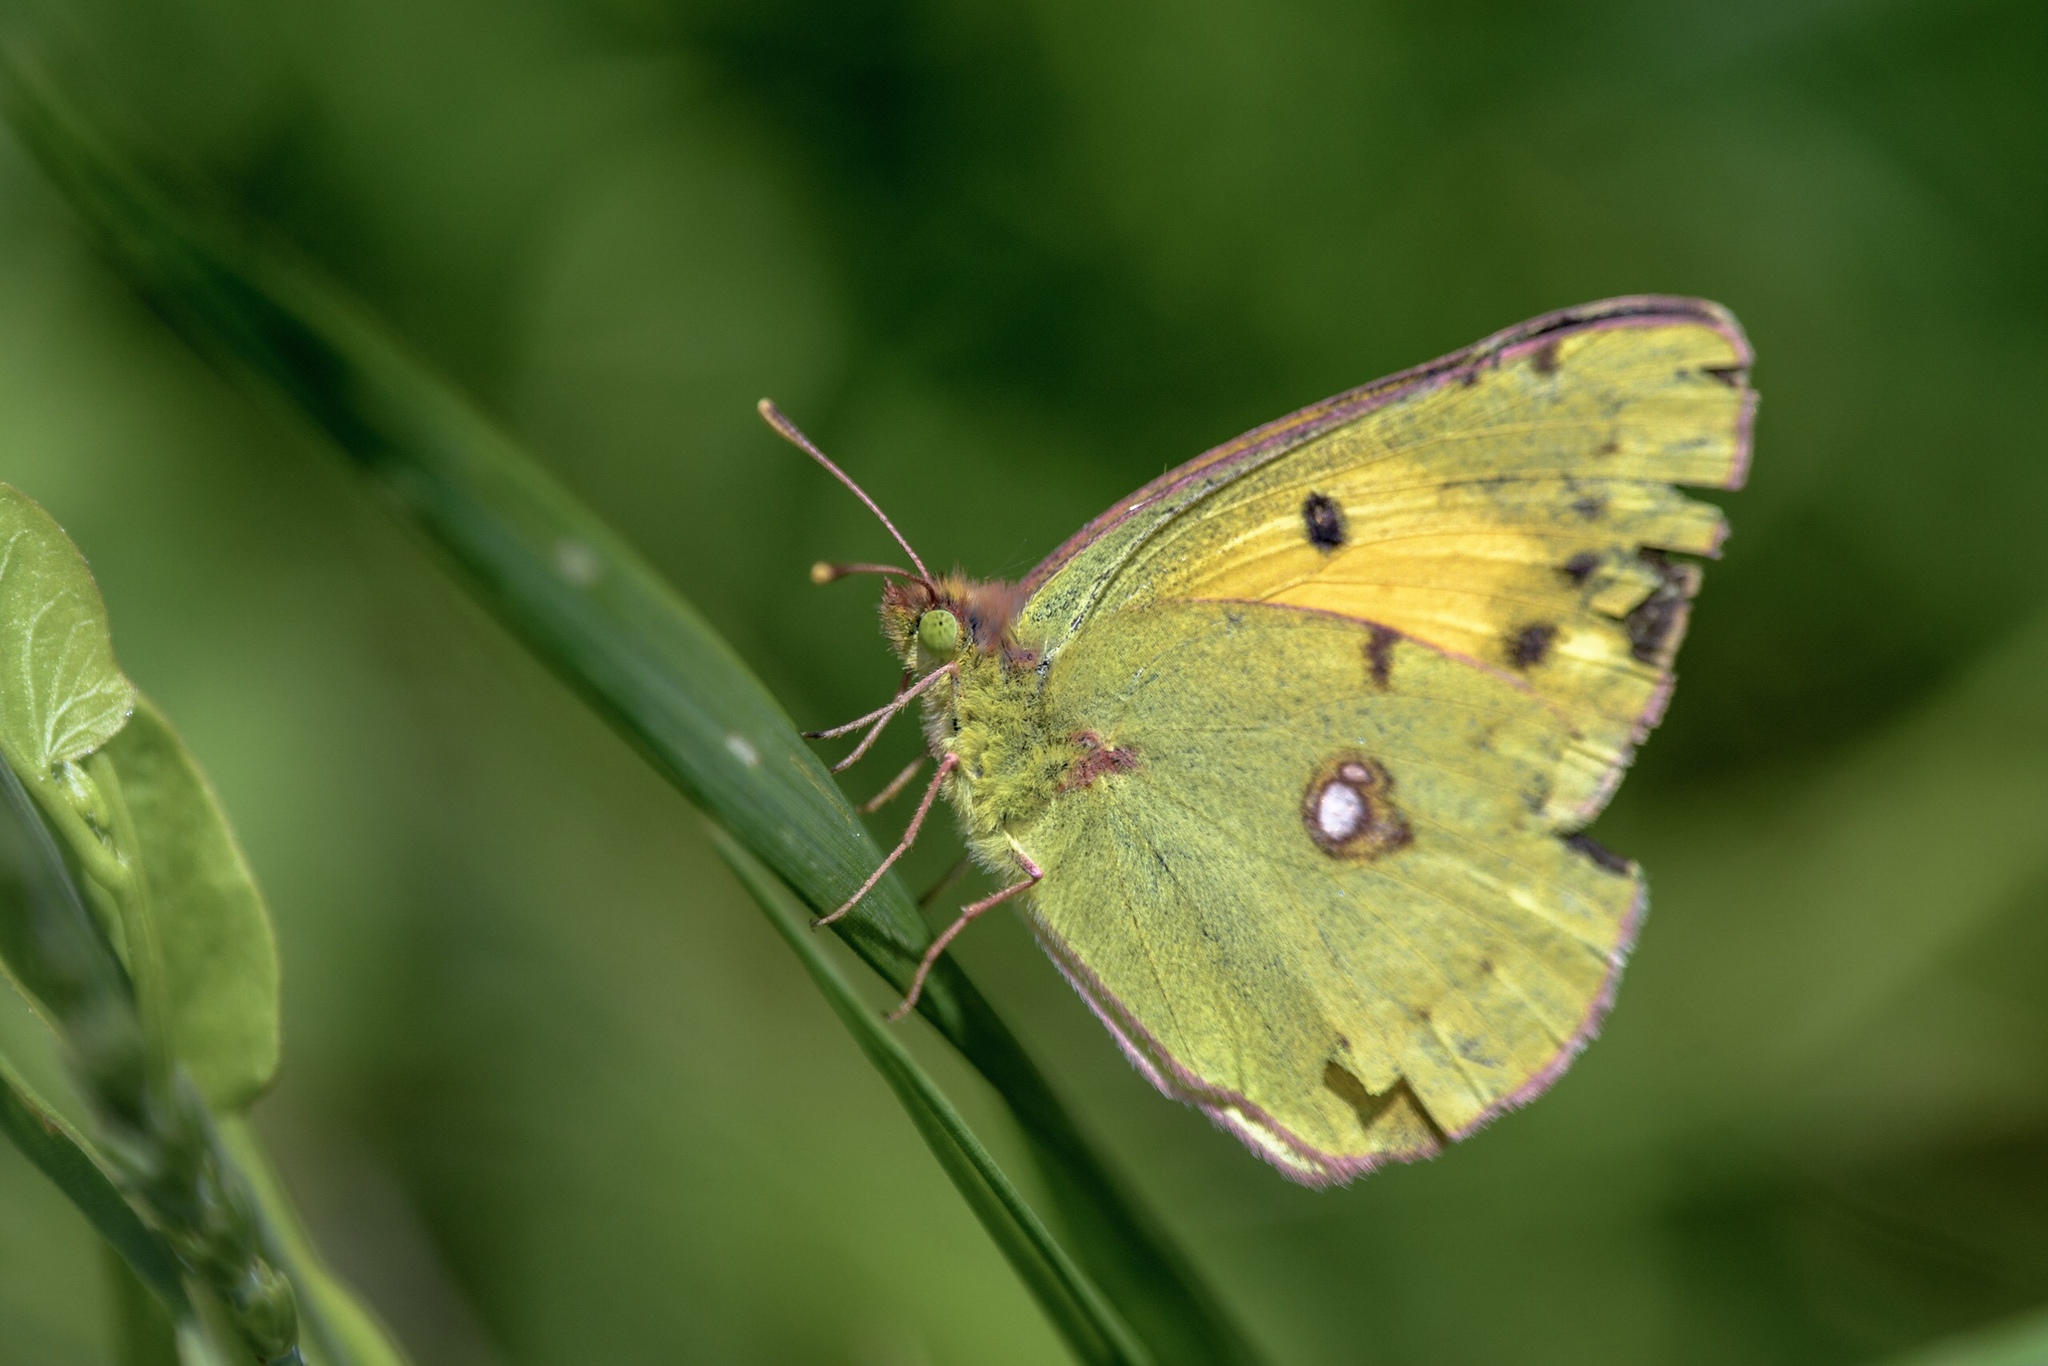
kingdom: Animalia
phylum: Arthropoda
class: Insecta
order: Lepidoptera
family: Pieridae
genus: Colias
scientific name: Colias croceus
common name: Clouded yellow
